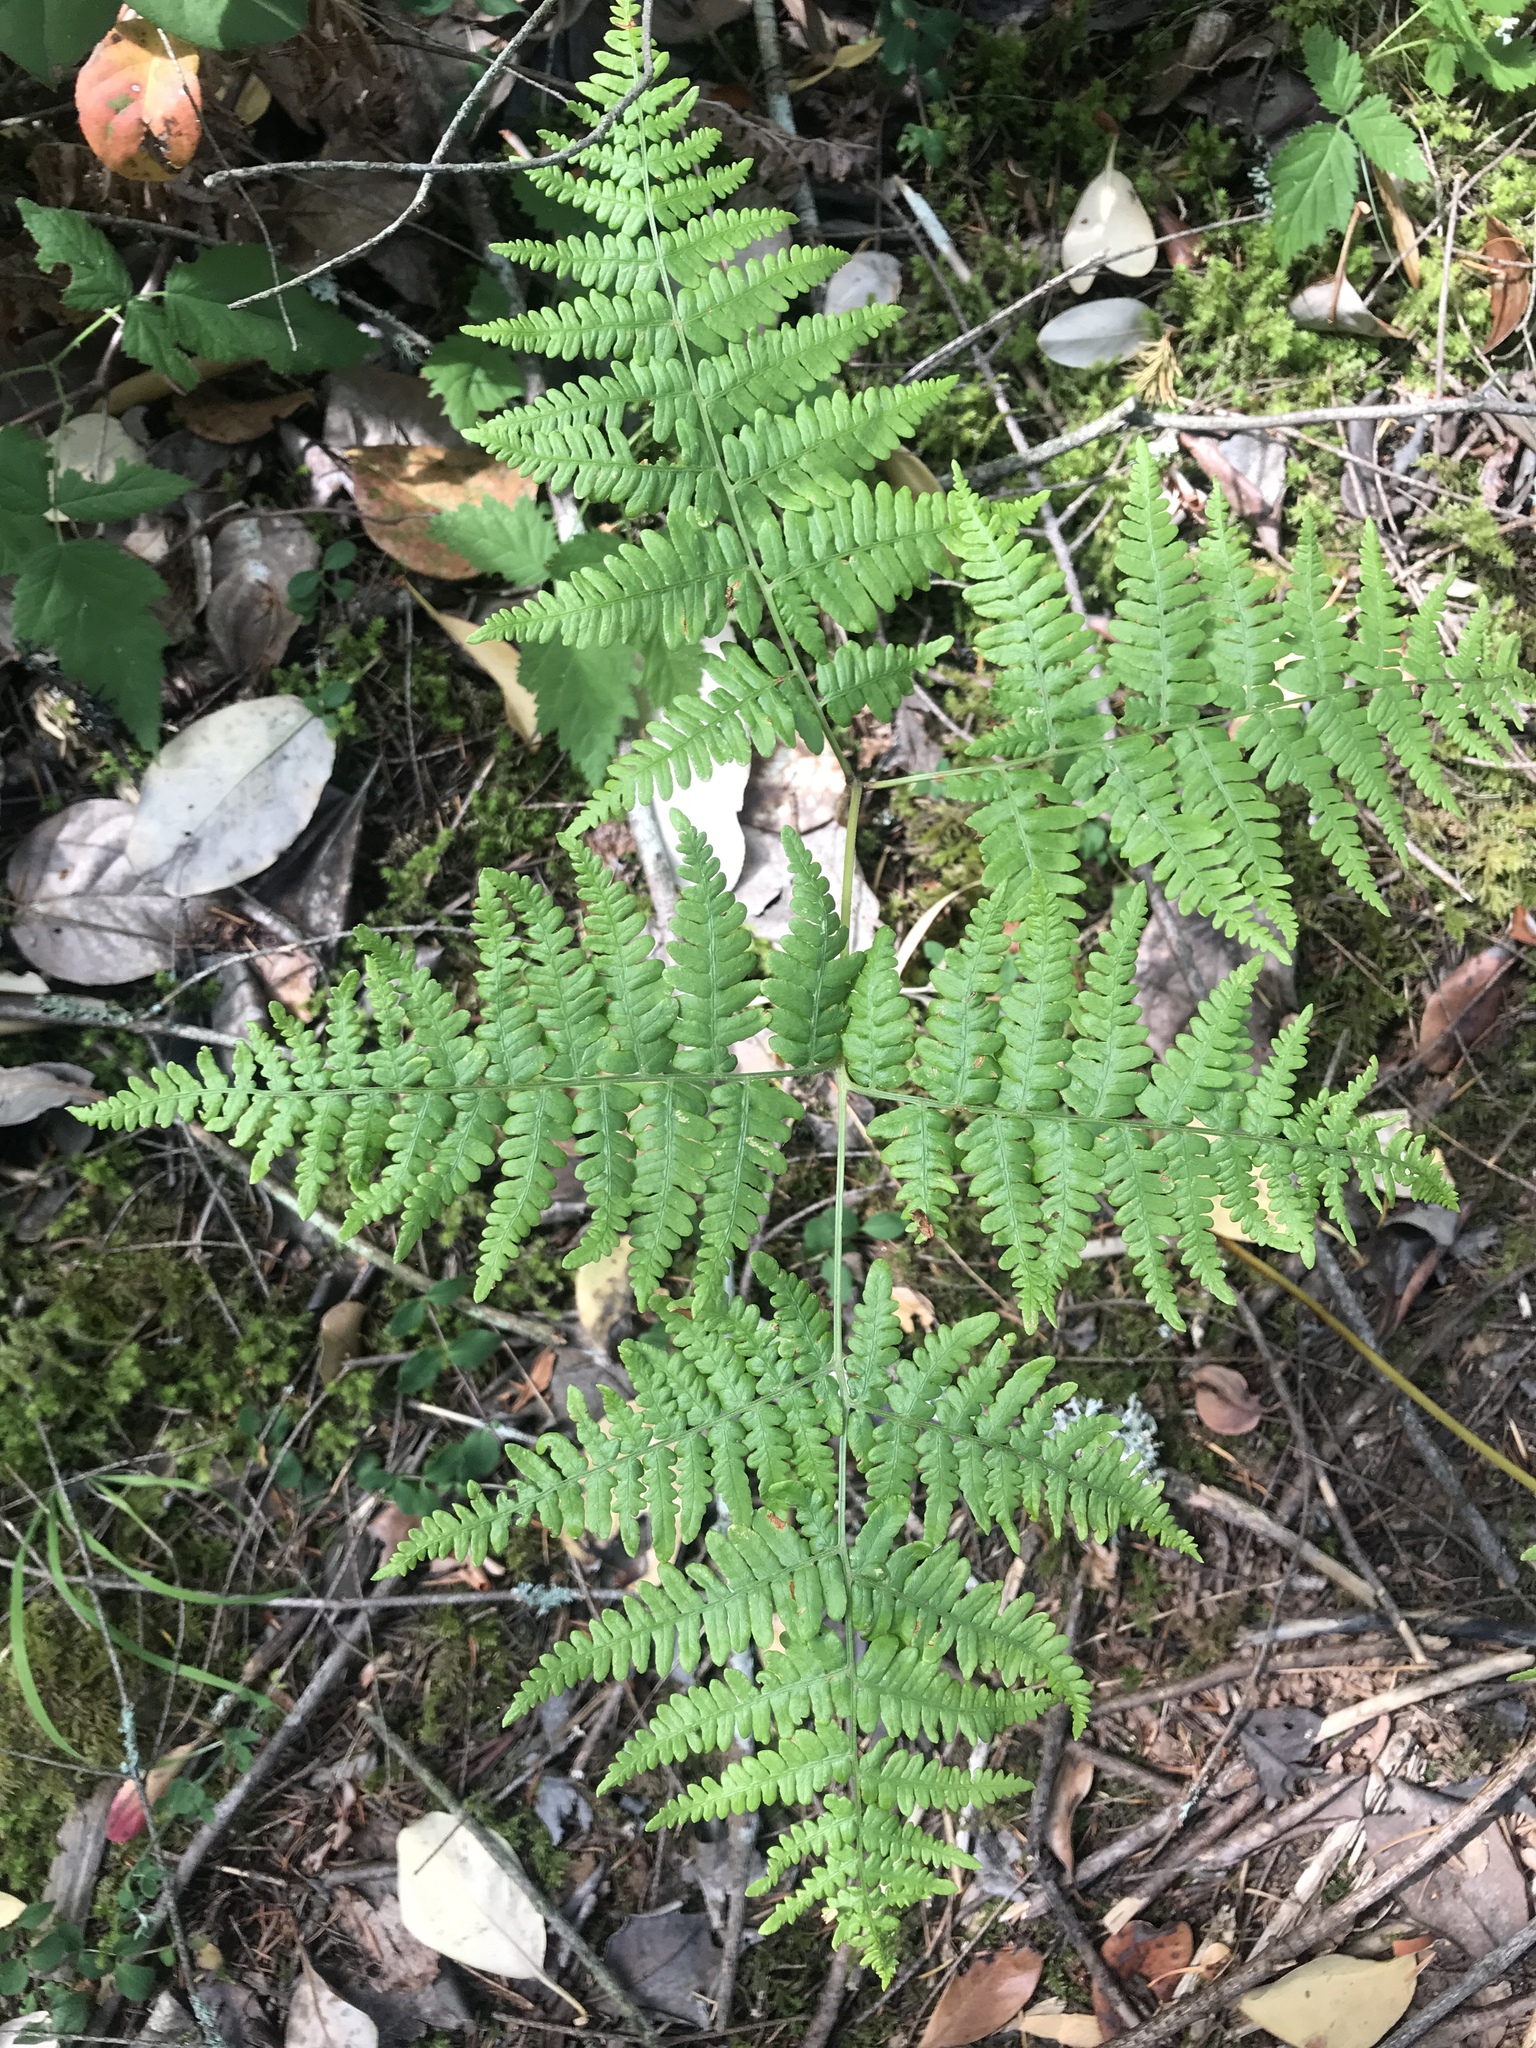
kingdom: Plantae
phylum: Tracheophyta
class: Polypodiopsida
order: Polypodiales
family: Dennstaedtiaceae
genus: Pteridium
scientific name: Pteridium aquilinum
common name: Bracken
